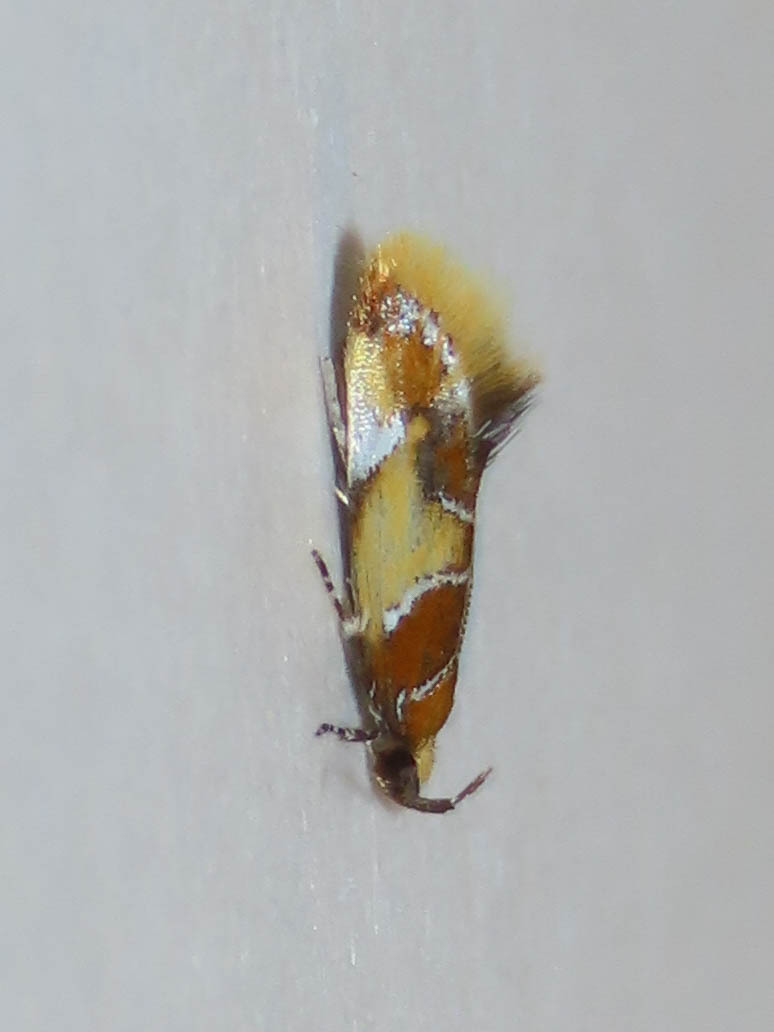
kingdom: Animalia
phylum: Arthropoda
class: Insecta
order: Lepidoptera
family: Oecophoridae
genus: Callima
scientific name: Callima argenticinctella
